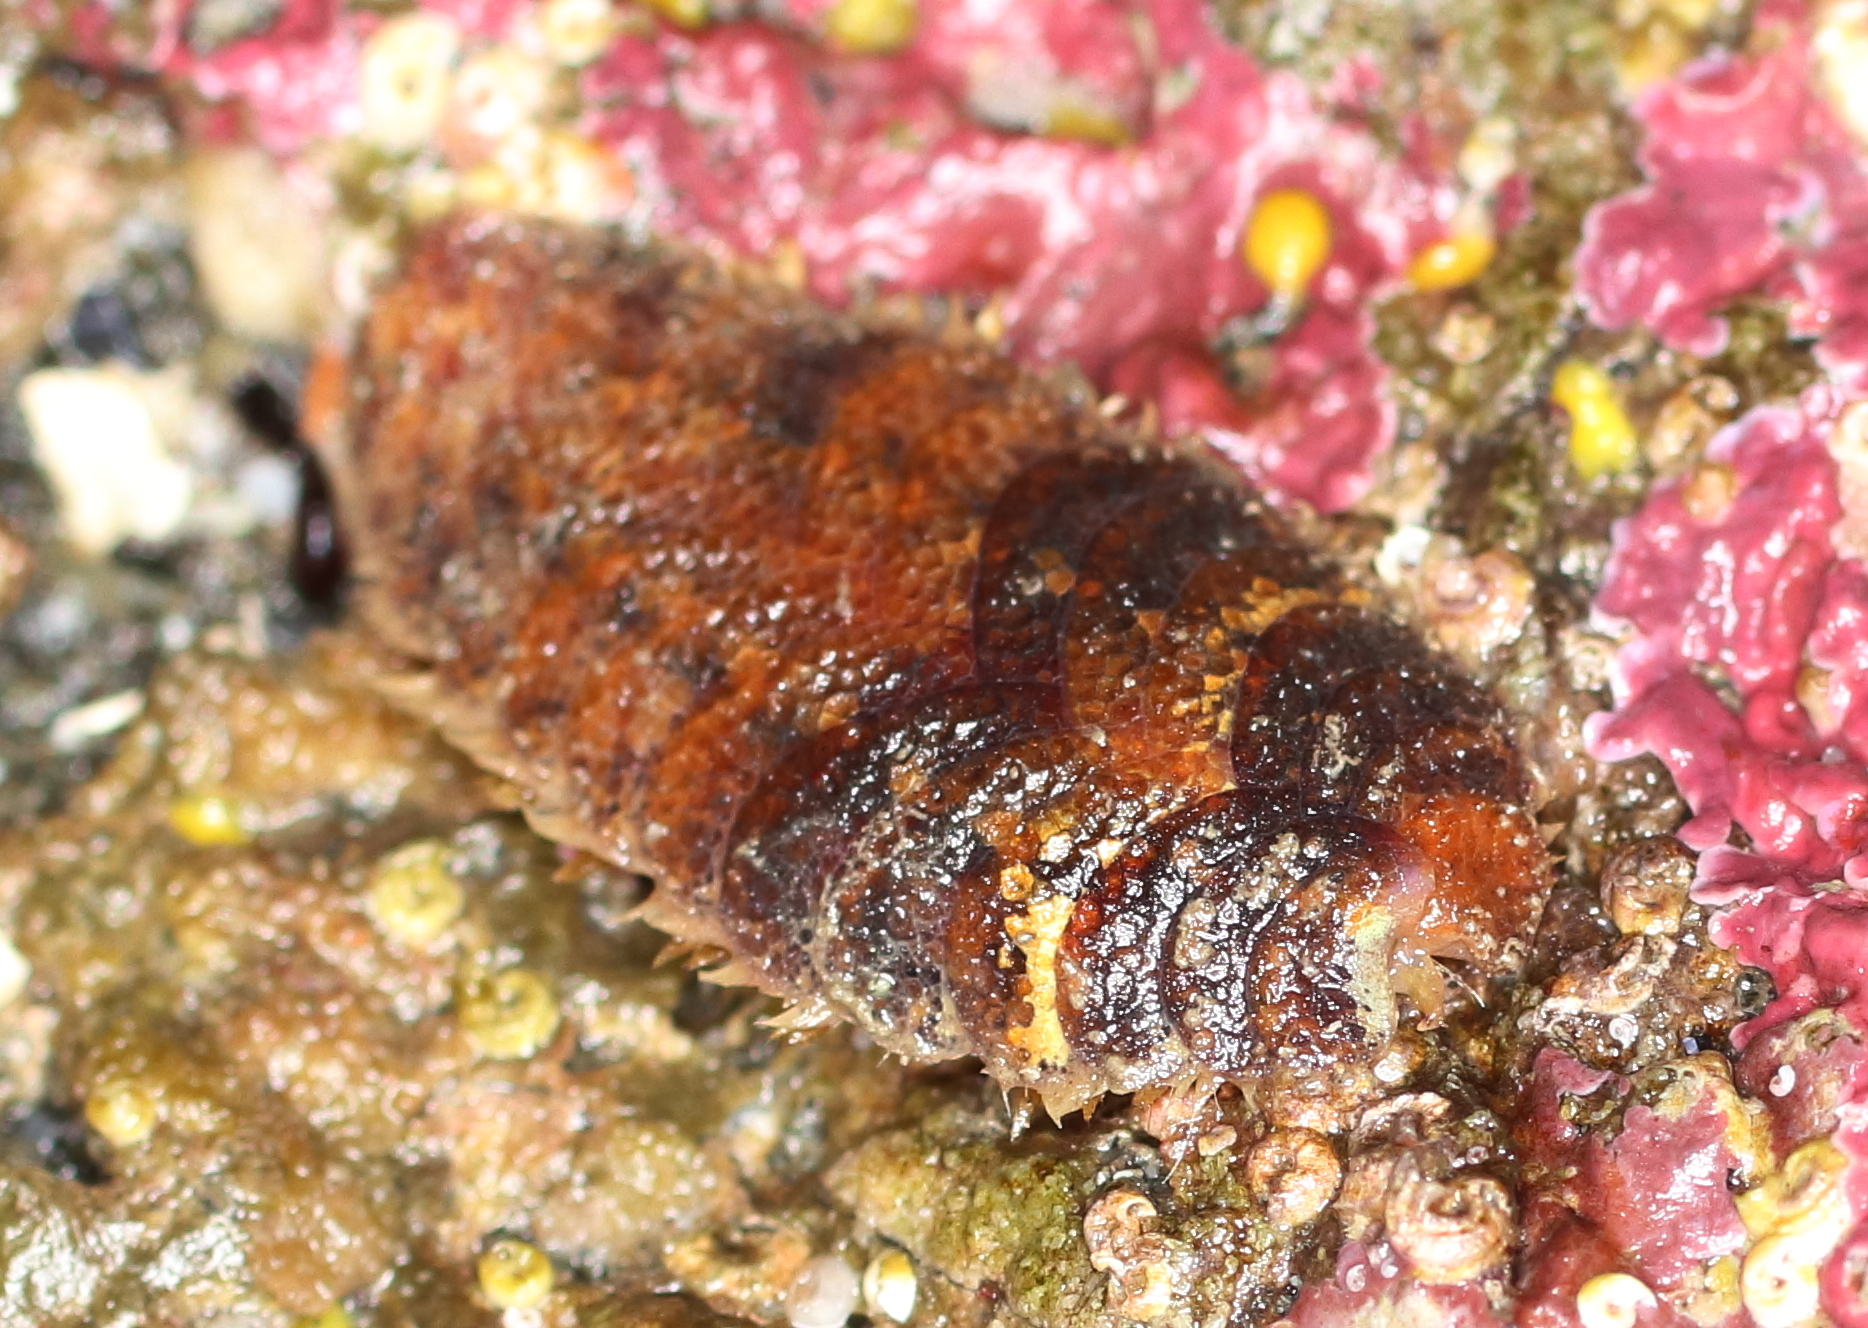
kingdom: Animalia
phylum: Annelida
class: Polychaeta
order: Phyllodocida
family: Polynoidae
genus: Gaudichaudius
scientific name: Gaudichaudius iphionelloides
